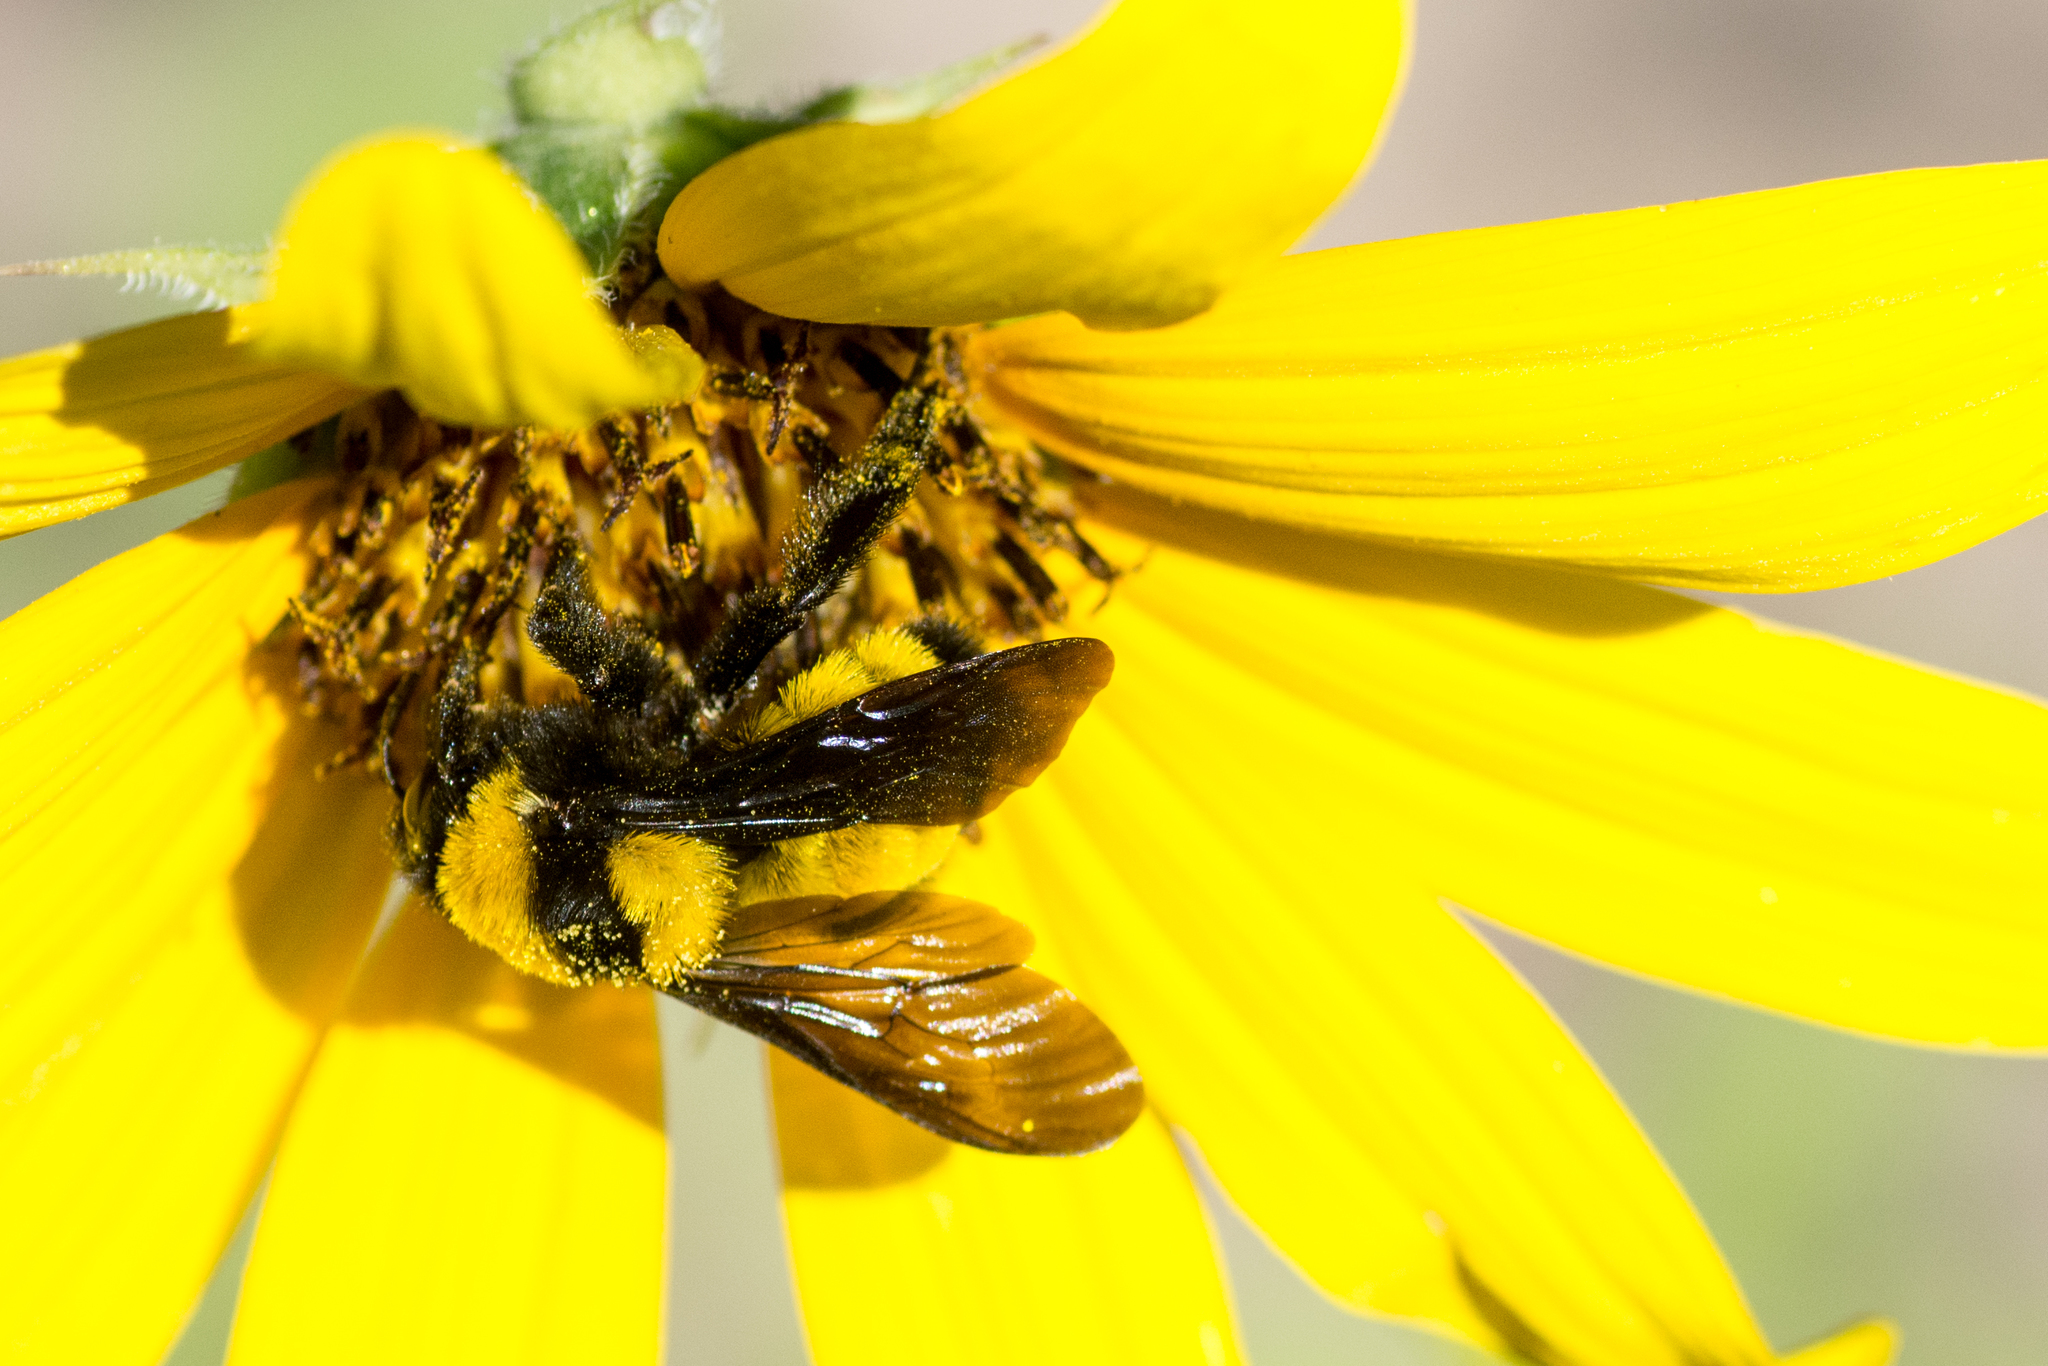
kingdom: Animalia
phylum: Arthropoda
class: Insecta
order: Hymenoptera
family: Apidae
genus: Bombus
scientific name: Bombus sonorus
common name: Sonoran bumble bee
